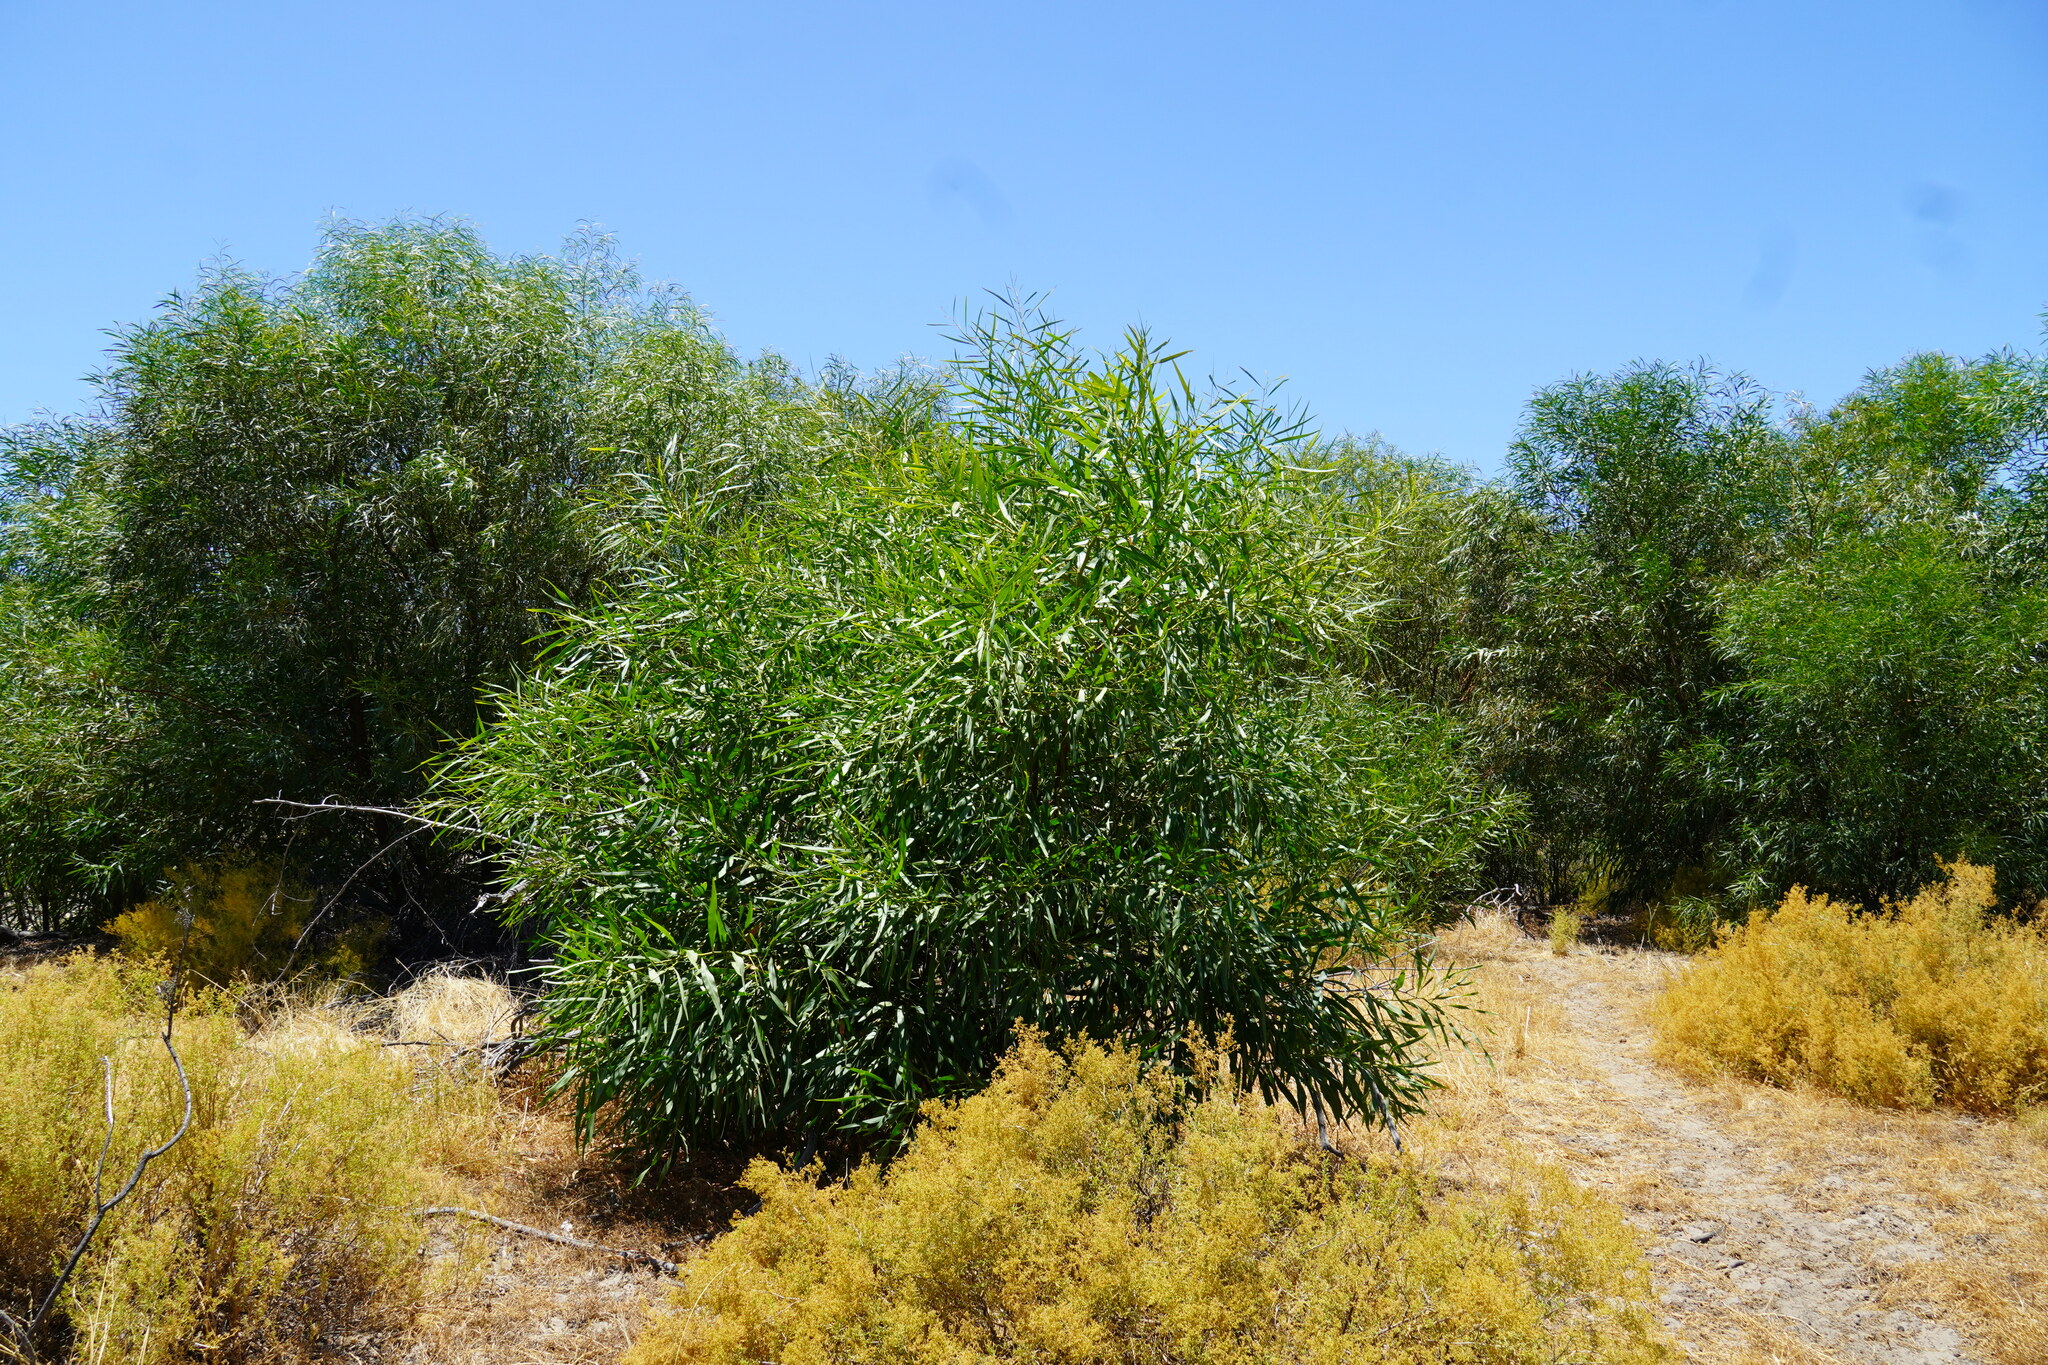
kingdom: Plantae
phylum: Tracheophyta
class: Magnoliopsida
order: Fabales
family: Fabaceae
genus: Acacia
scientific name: Acacia saligna
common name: Orange wattle
